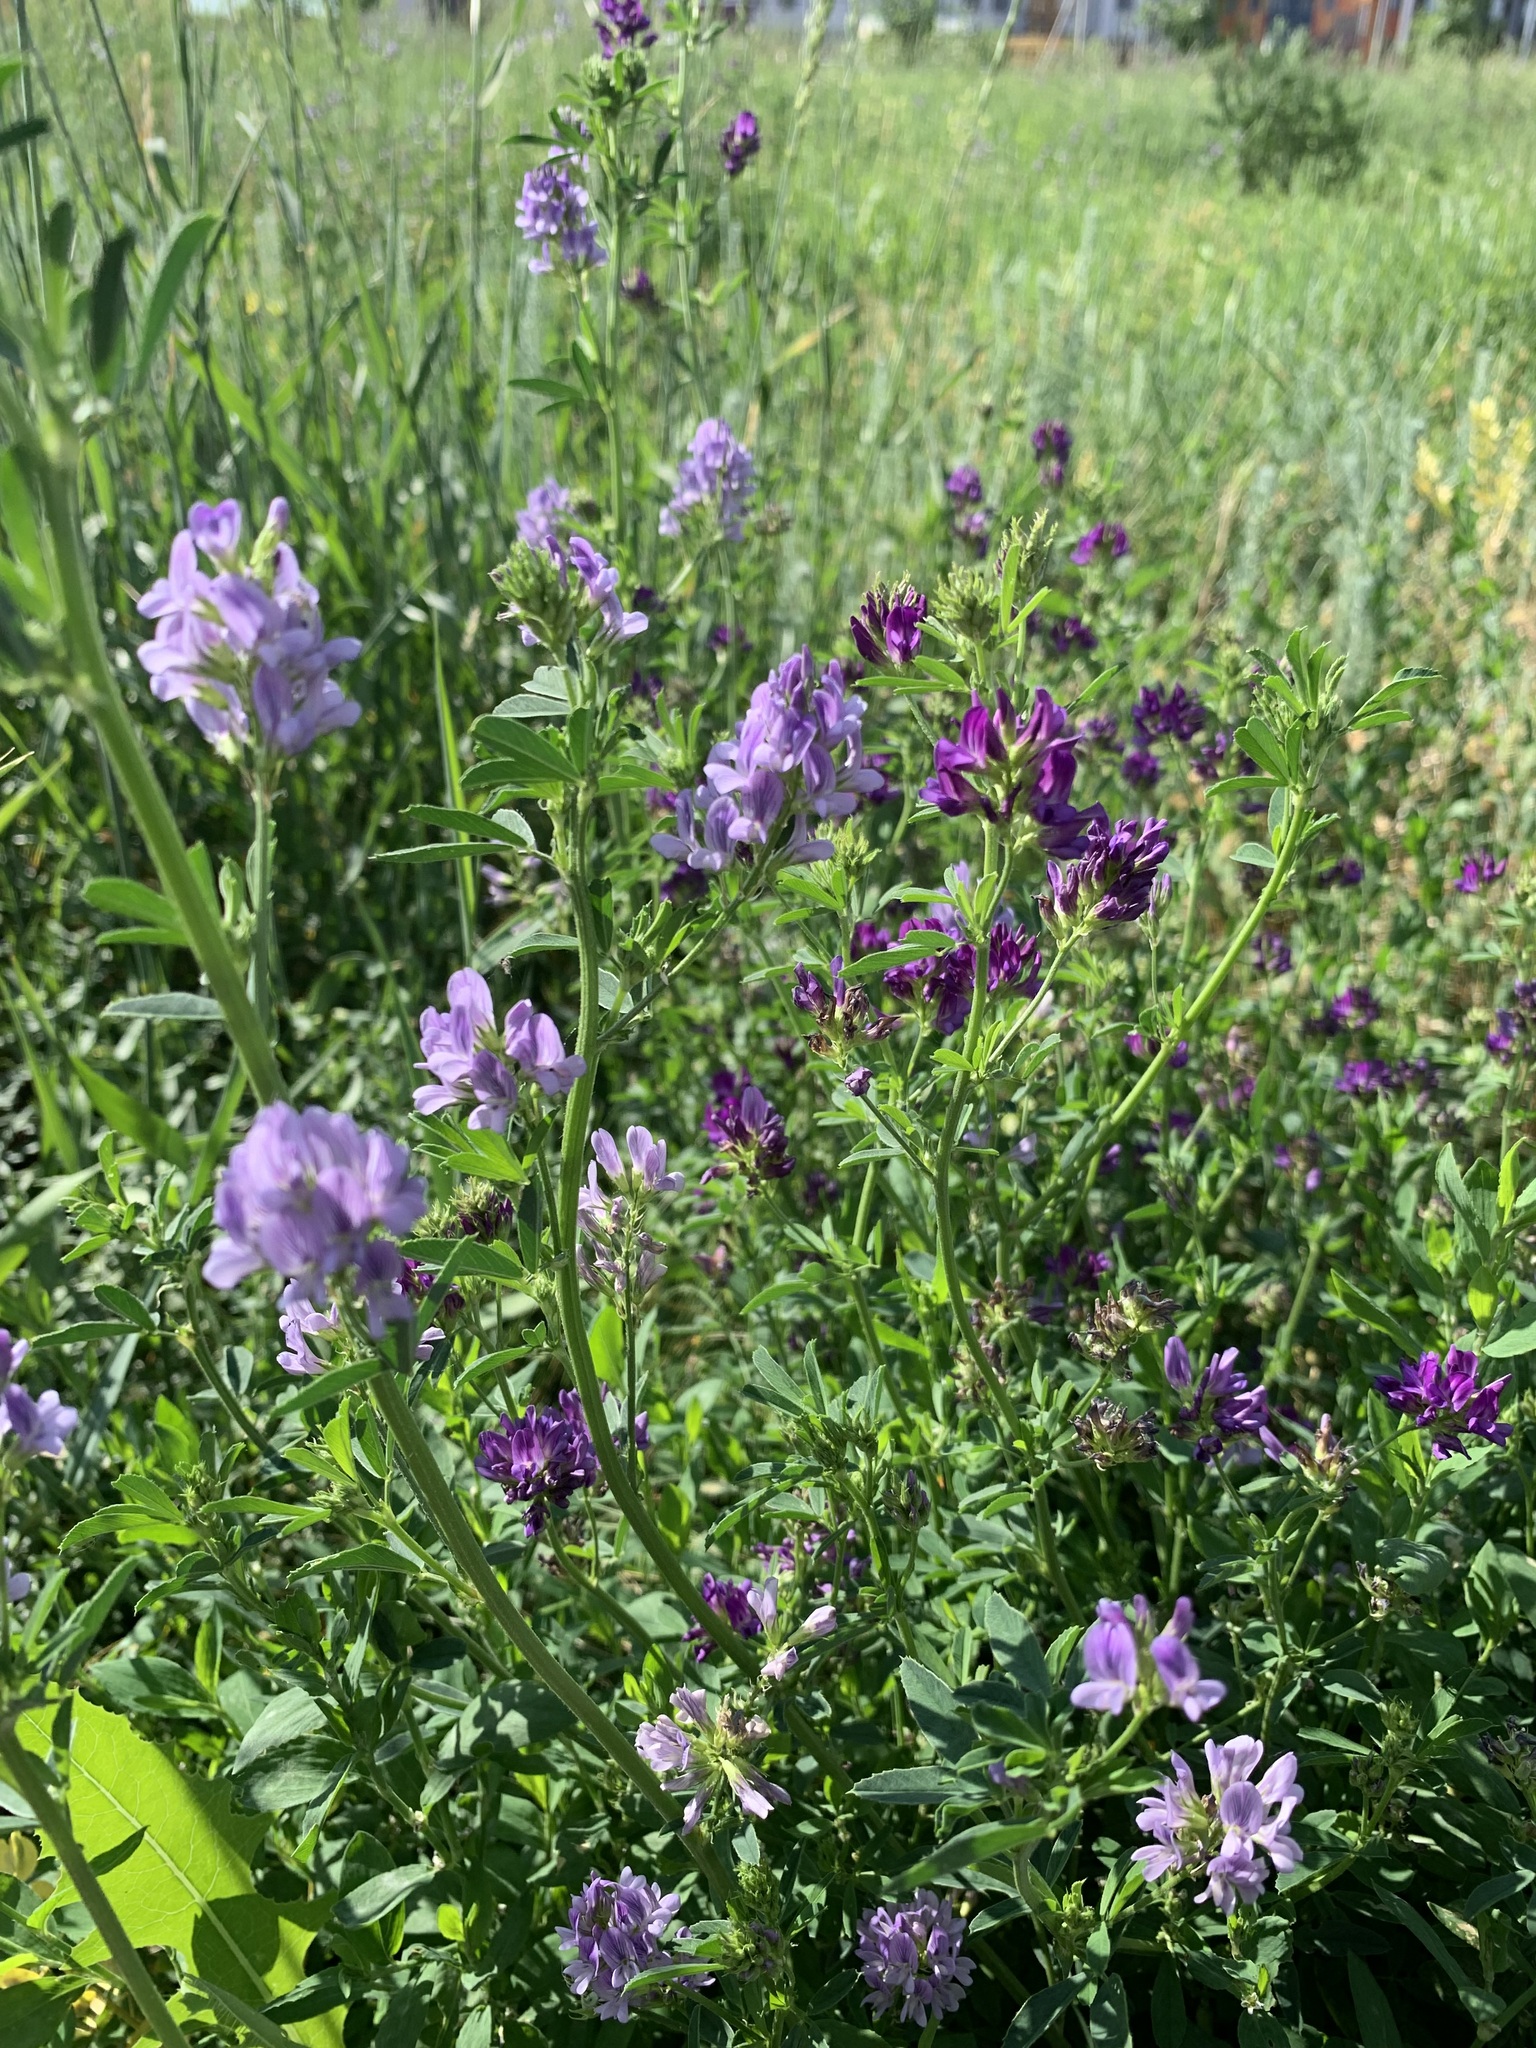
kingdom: Plantae
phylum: Tracheophyta
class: Magnoliopsida
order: Fabales
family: Fabaceae
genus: Medicago
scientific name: Medicago sativa
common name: Alfalfa
